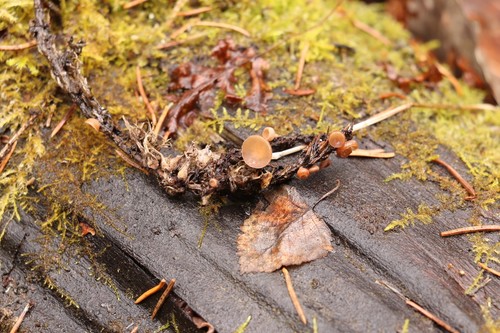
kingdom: Fungi
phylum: Ascomycota
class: Leotiomycetes
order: Helotiales
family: Sclerotiniaceae
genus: Ciboria
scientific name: Ciboria caucus
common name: Alder goblet
